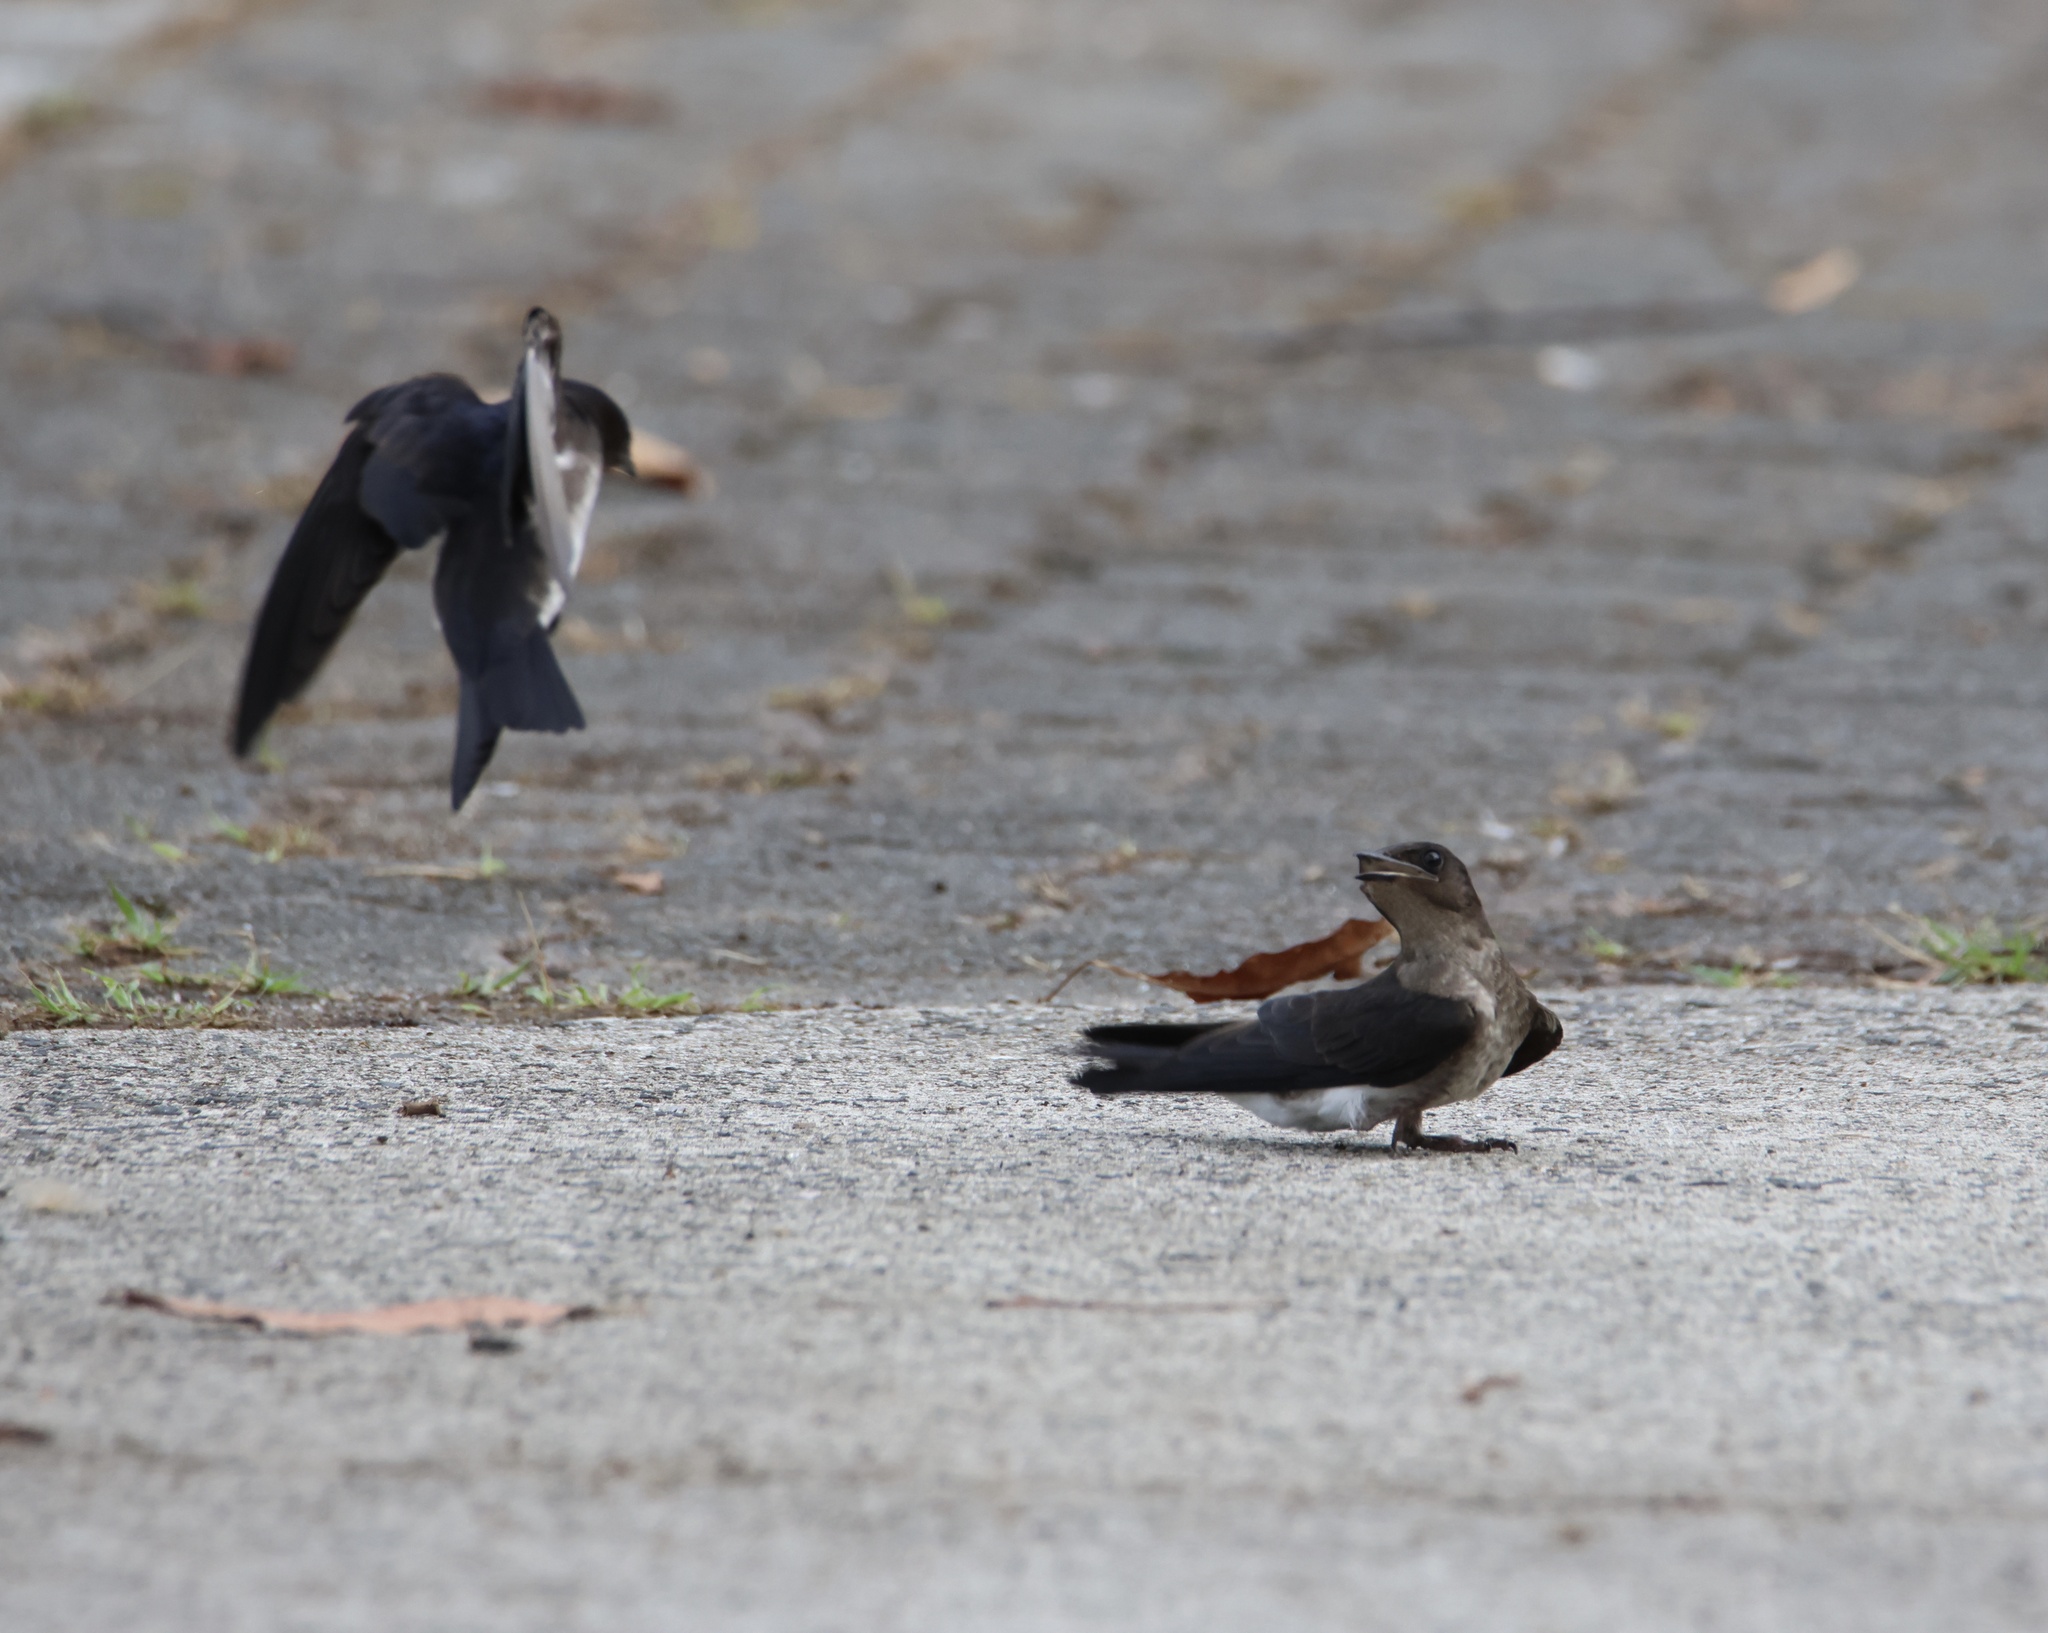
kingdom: Animalia
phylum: Chordata
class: Aves
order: Passeriformes
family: Hirundinidae
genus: Progne
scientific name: Progne chalybea
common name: Grey-breasted martin
